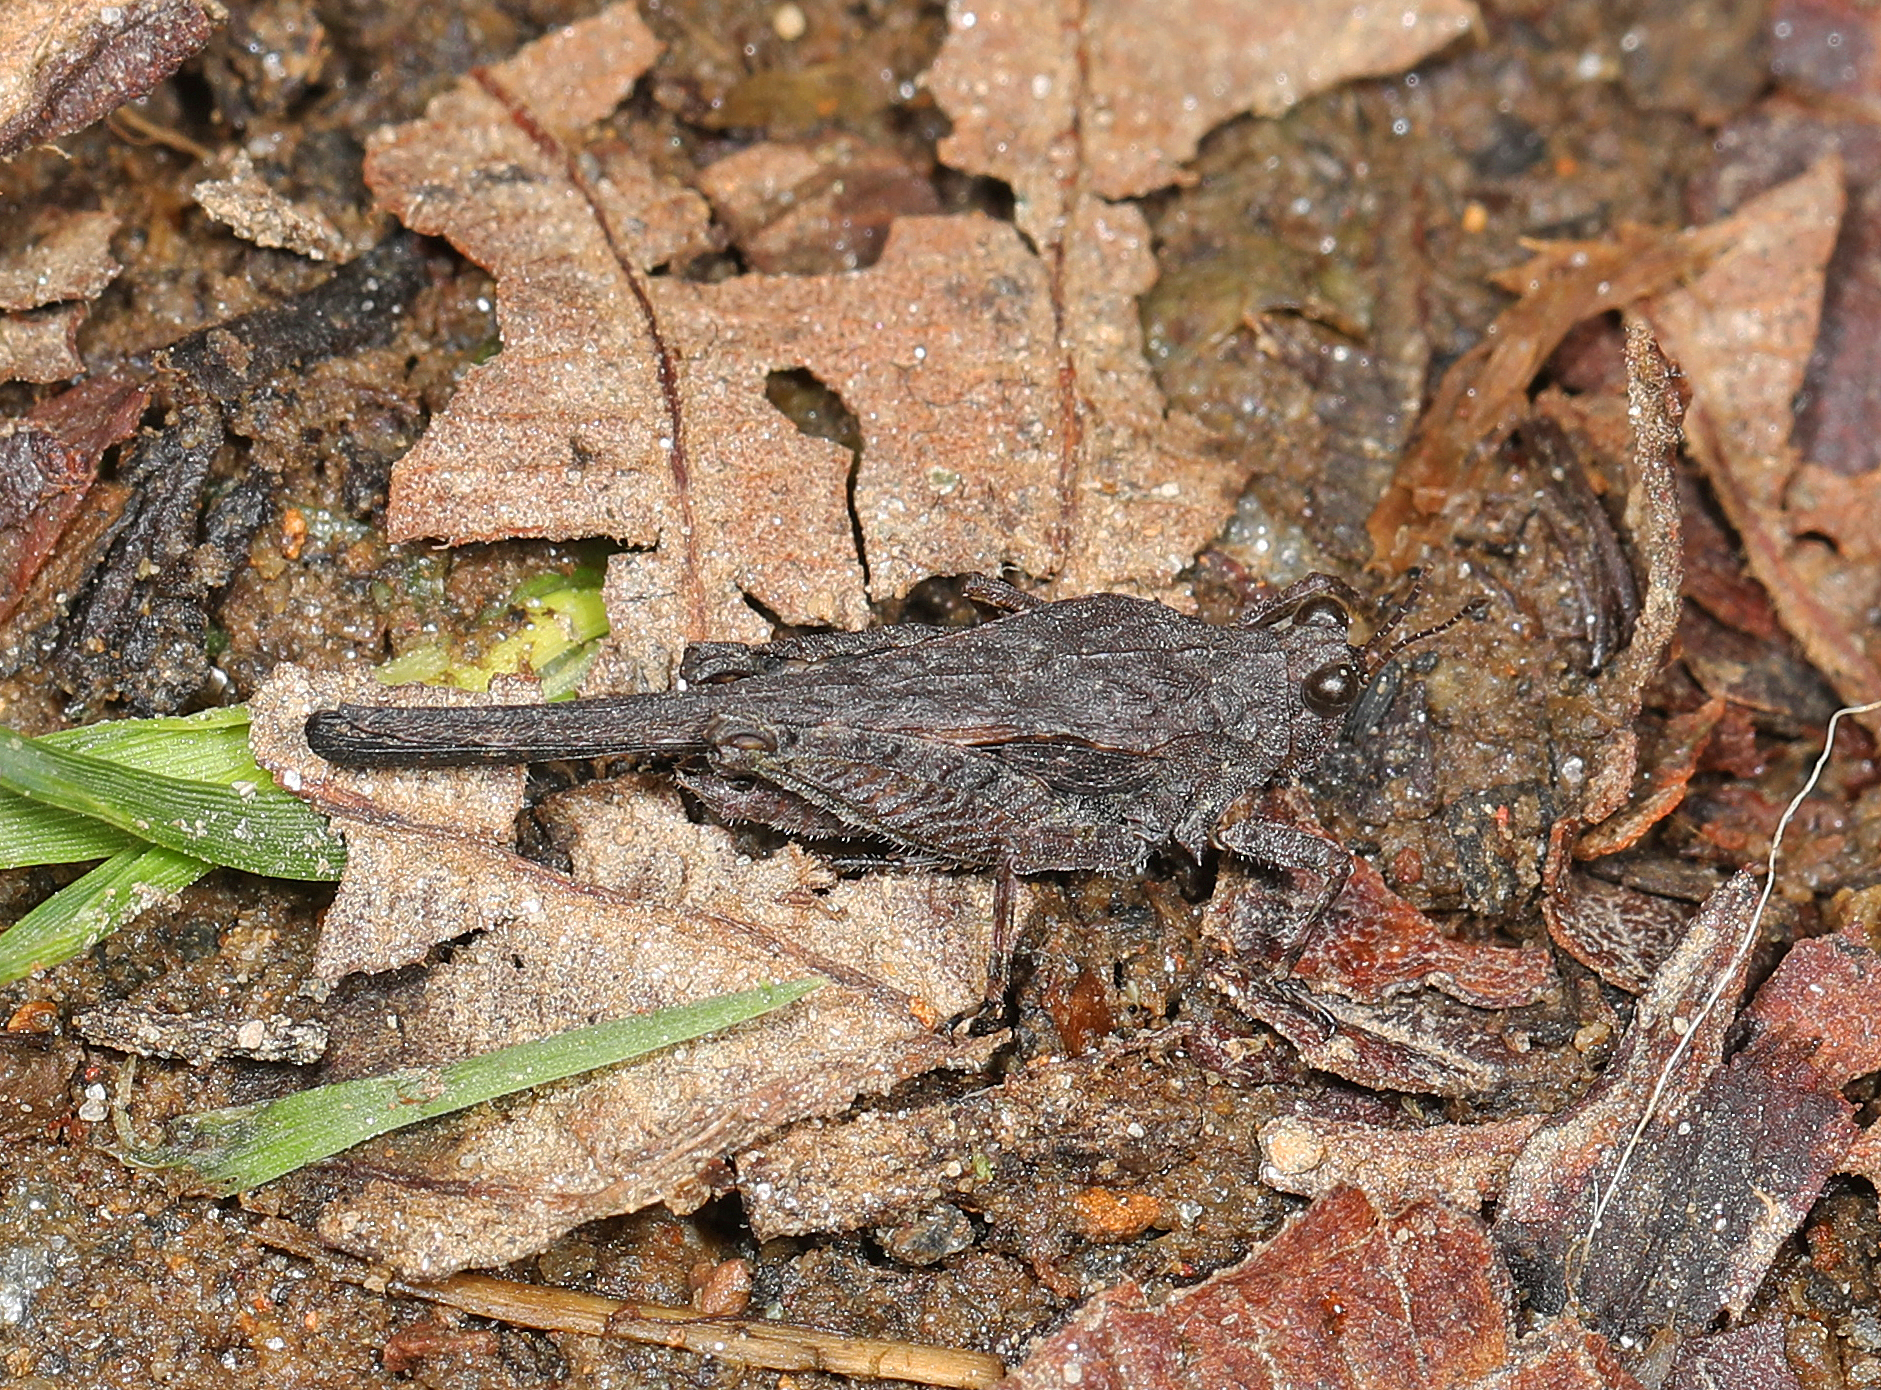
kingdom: Animalia
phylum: Arthropoda
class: Insecta
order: Orthoptera
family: Tetrigidae
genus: Scabrotettix
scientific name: Scabrotettix magistralis
